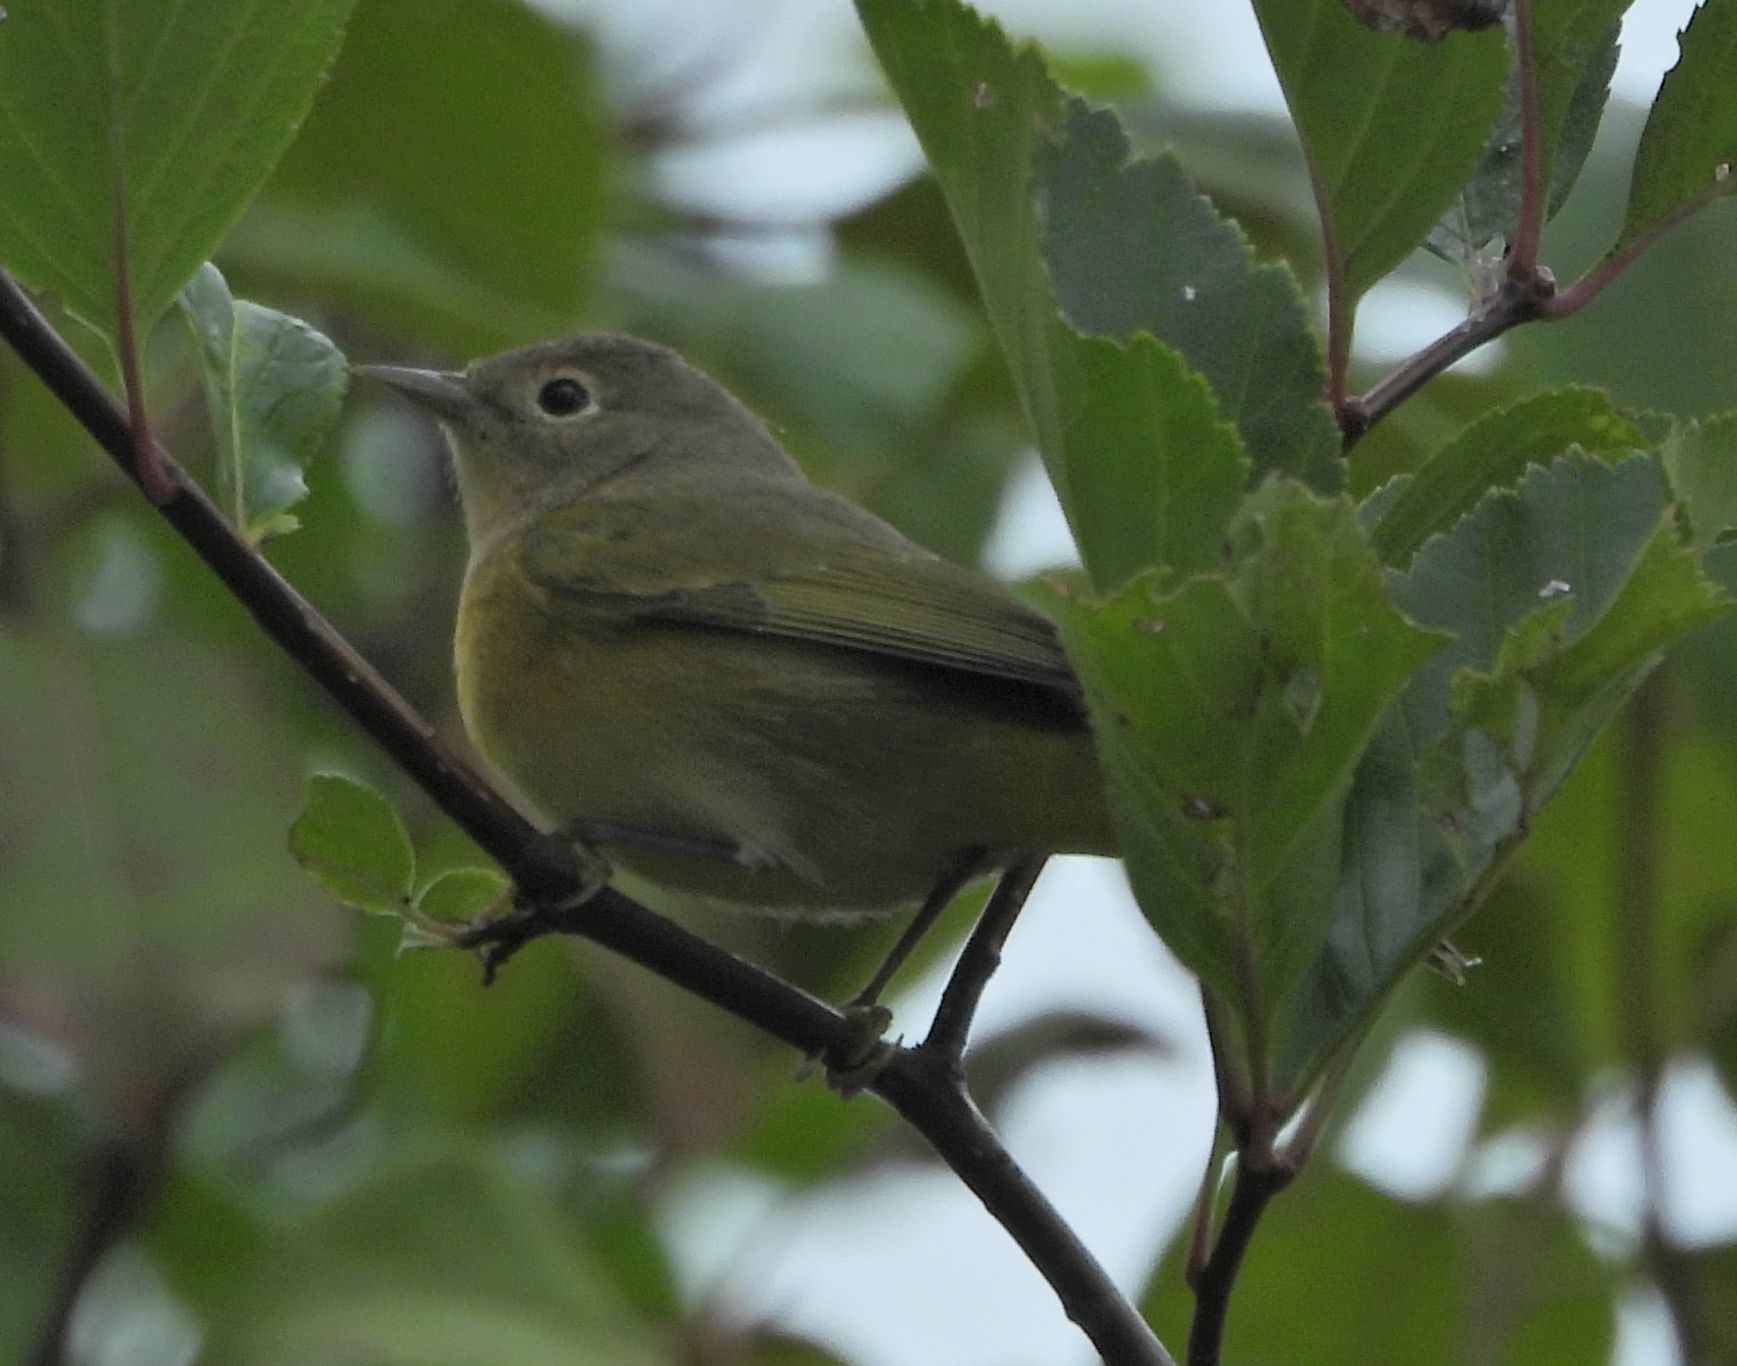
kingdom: Animalia
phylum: Chordata
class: Aves
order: Passeriformes
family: Parulidae
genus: Leiothlypis
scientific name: Leiothlypis ruficapilla
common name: Nashville warbler
